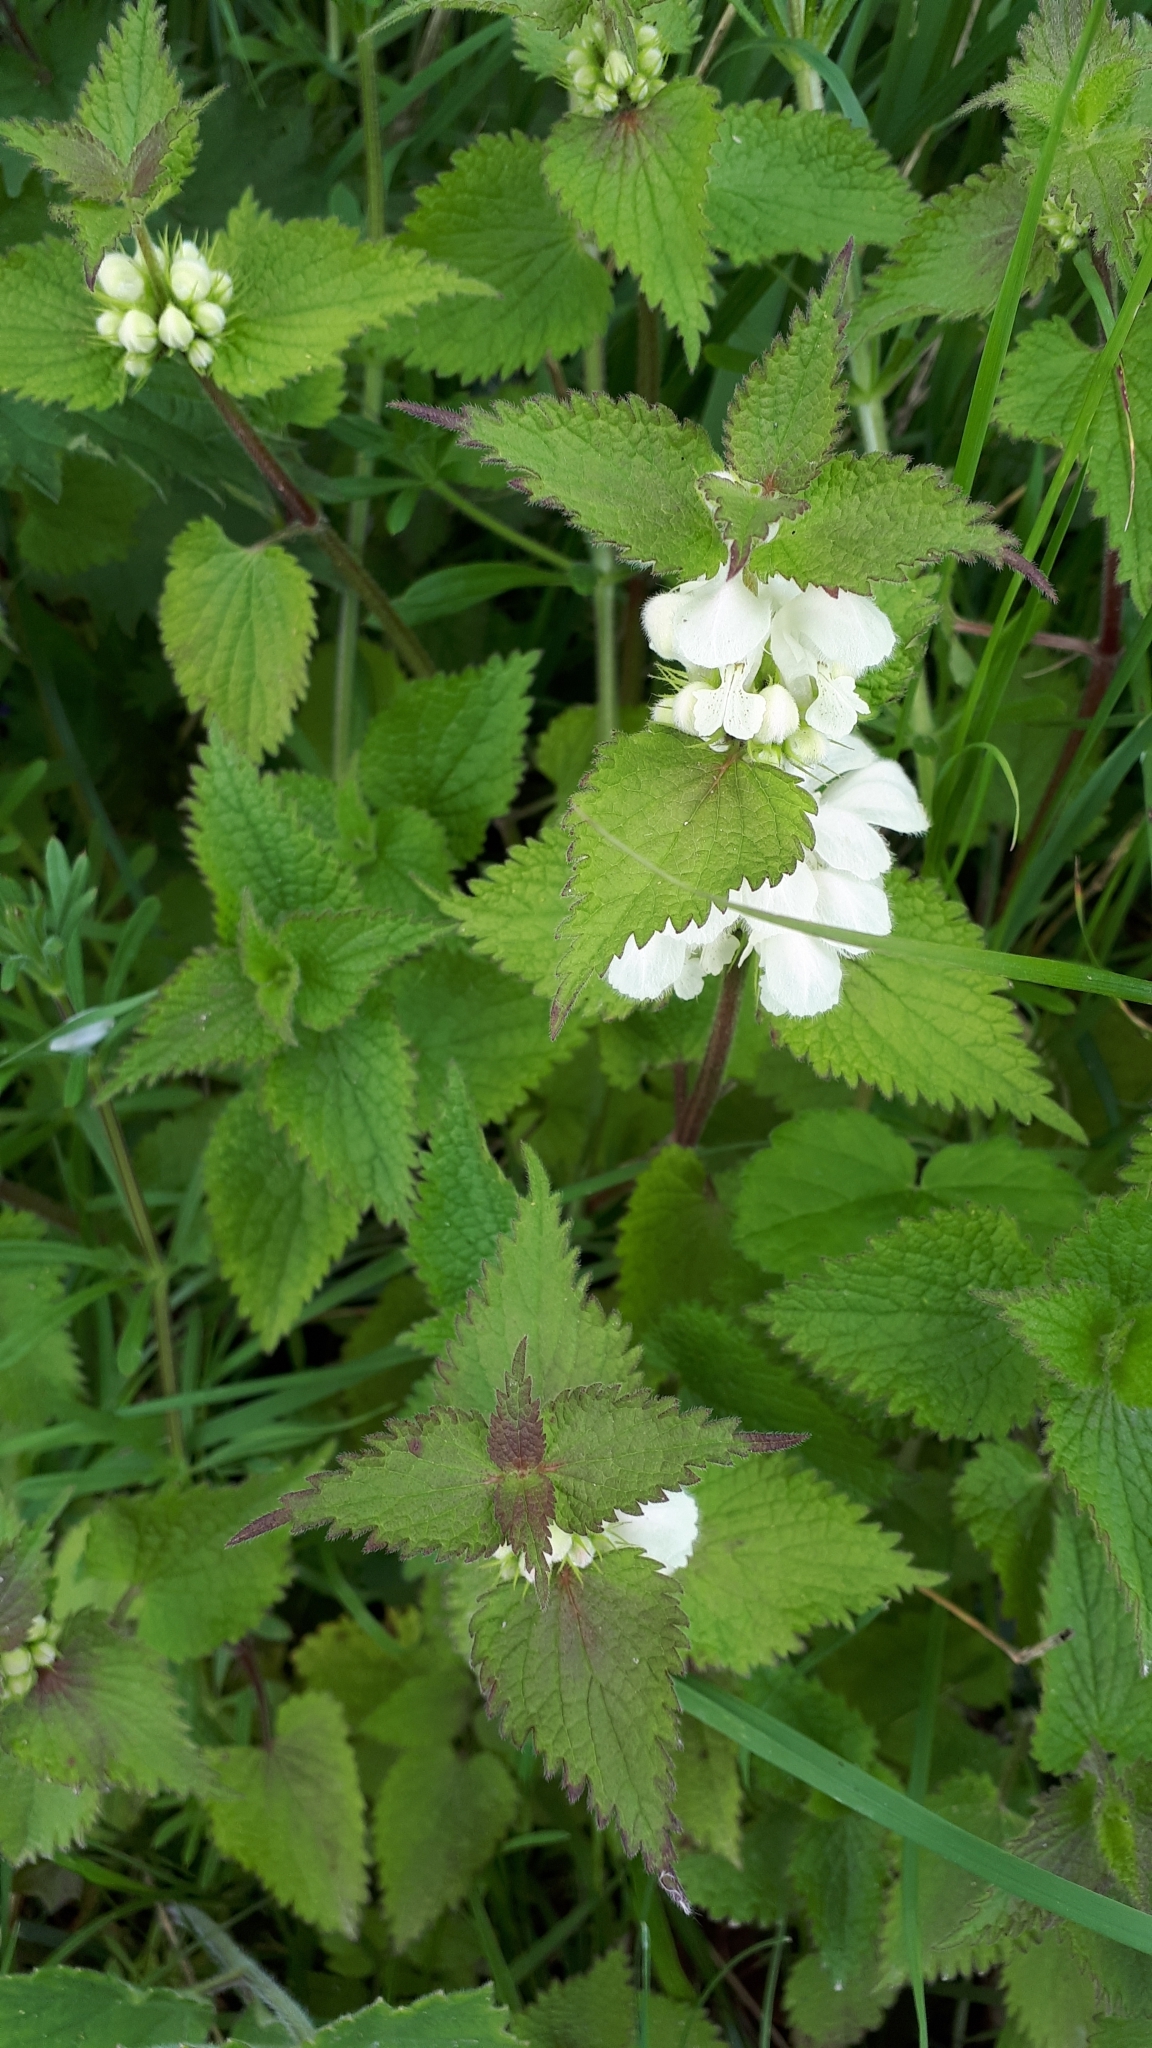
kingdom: Plantae
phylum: Tracheophyta
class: Magnoliopsida
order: Lamiales
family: Lamiaceae
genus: Lamium
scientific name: Lamium album
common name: White dead-nettle
